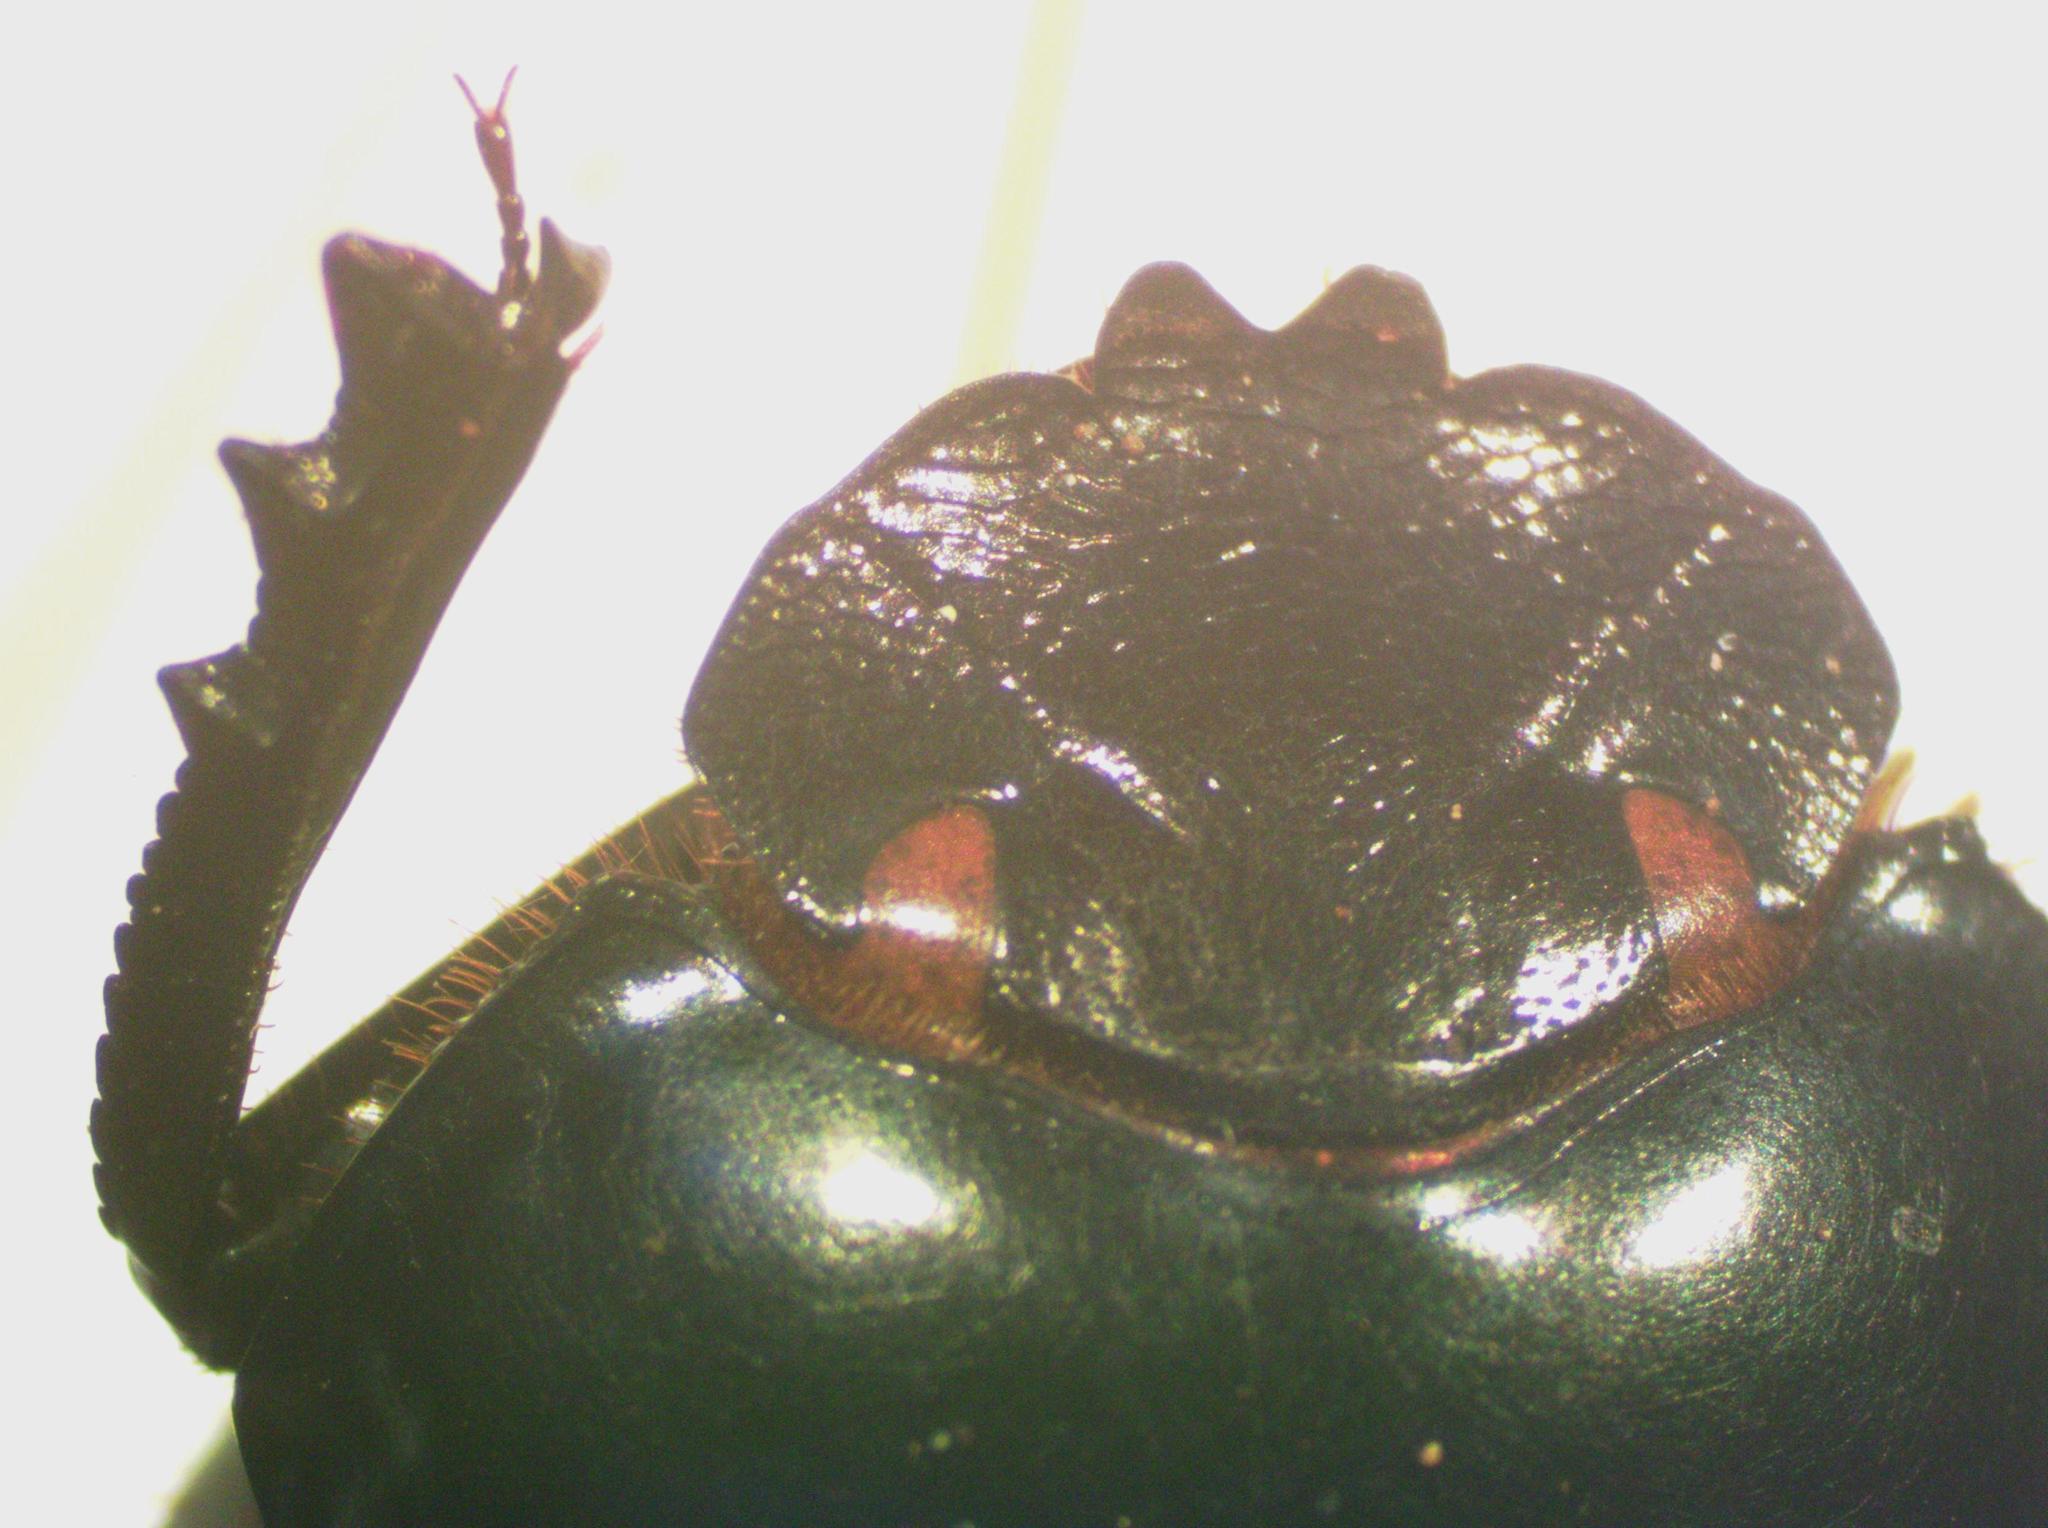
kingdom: Animalia
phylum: Arthropoda
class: Insecta
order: Coleoptera
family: Scarabaeidae
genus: Malagoniella
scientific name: Malagoniella astyanax
